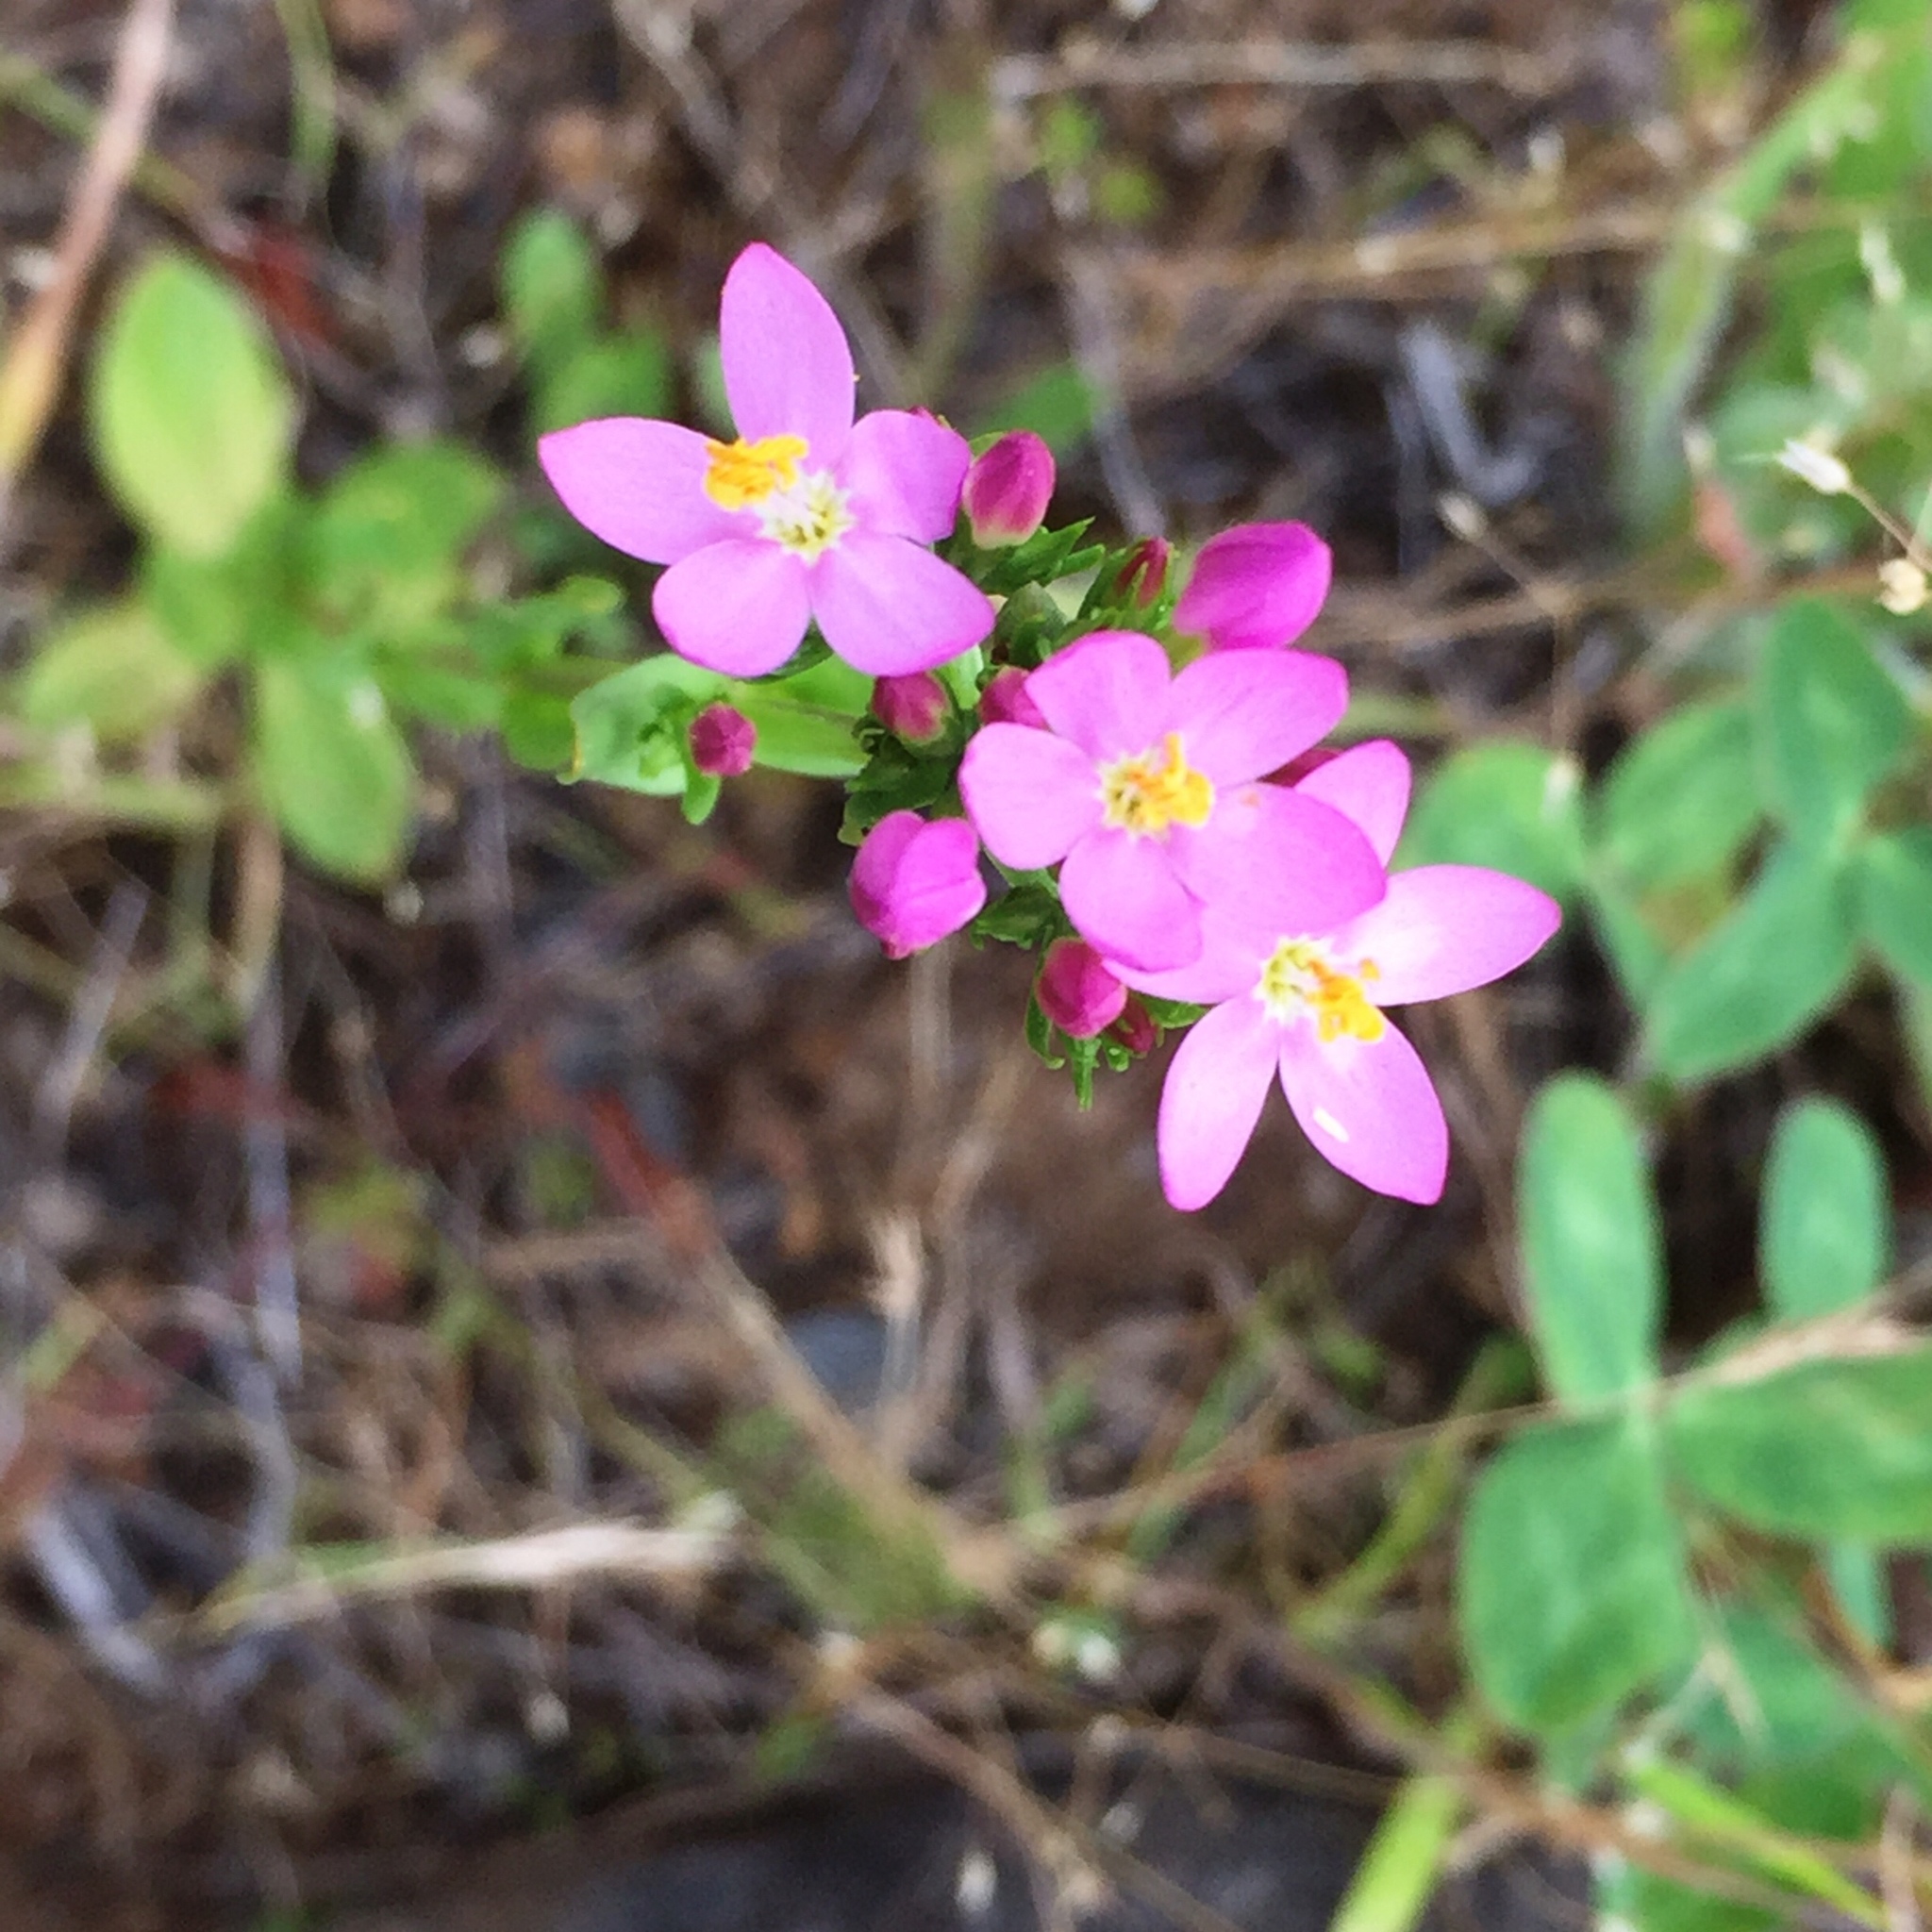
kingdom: Plantae
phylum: Tracheophyta
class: Magnoliopsida
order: Gentianales
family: Gentianaceae
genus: Centaurium
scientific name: Centaurium erythraea
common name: Common centaury
